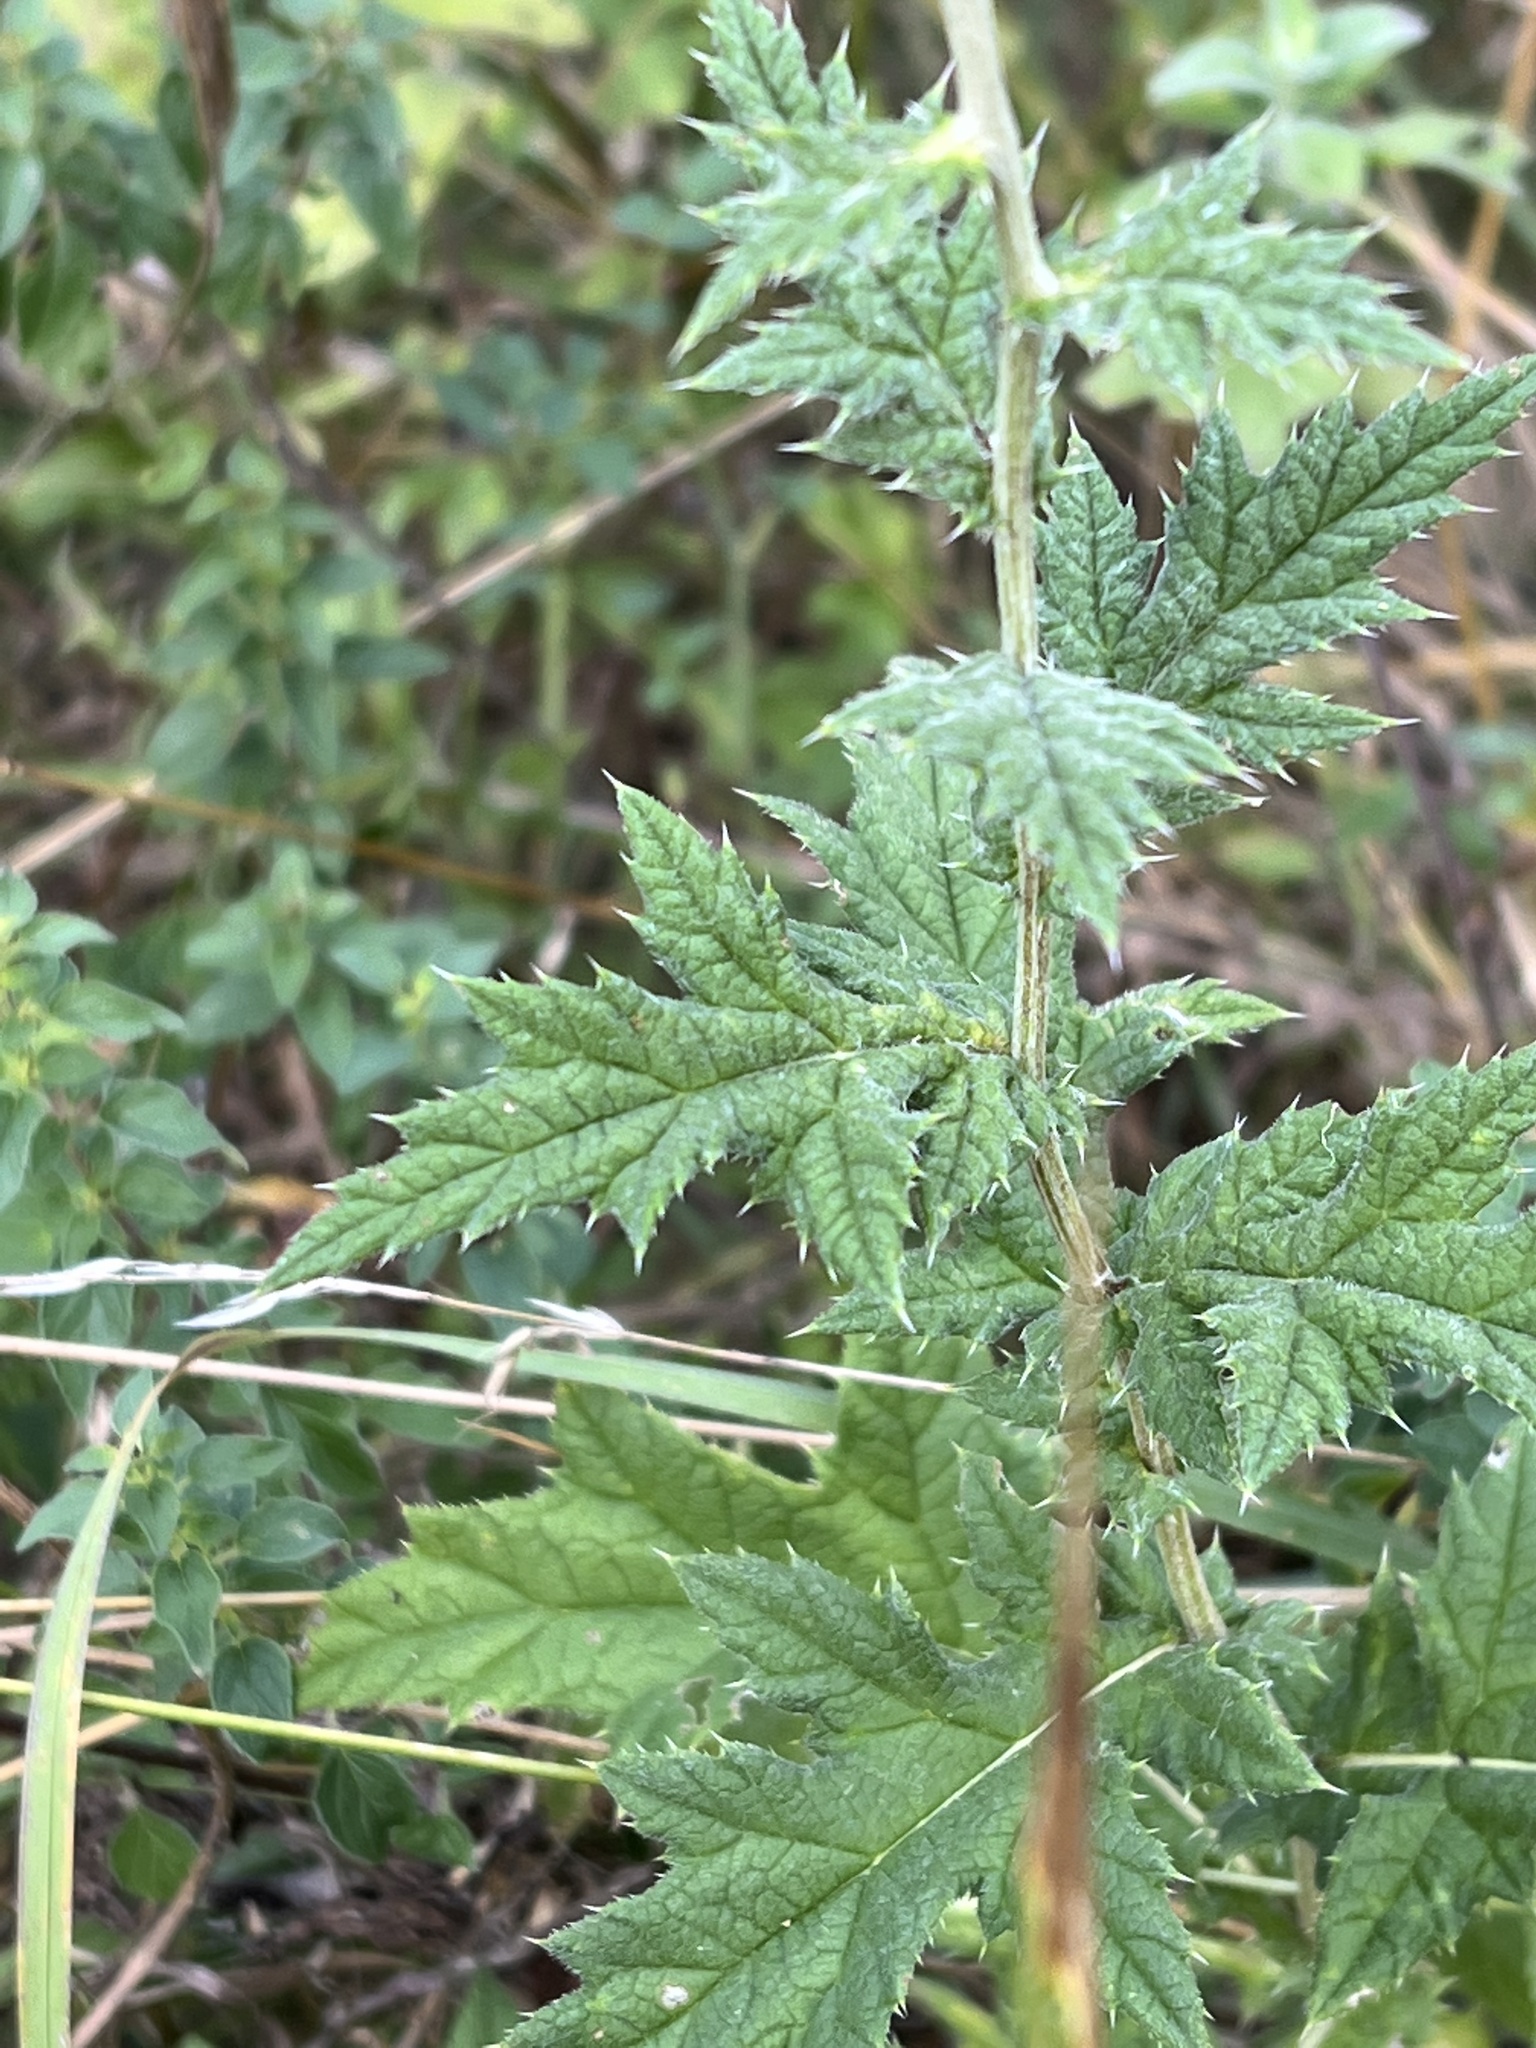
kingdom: Plantae
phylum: Tracheophyta
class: Magnoliopsida
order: Asterales
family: Asteraceae
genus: Echinops
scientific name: Echinops exaltatus
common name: Globe-thistle
